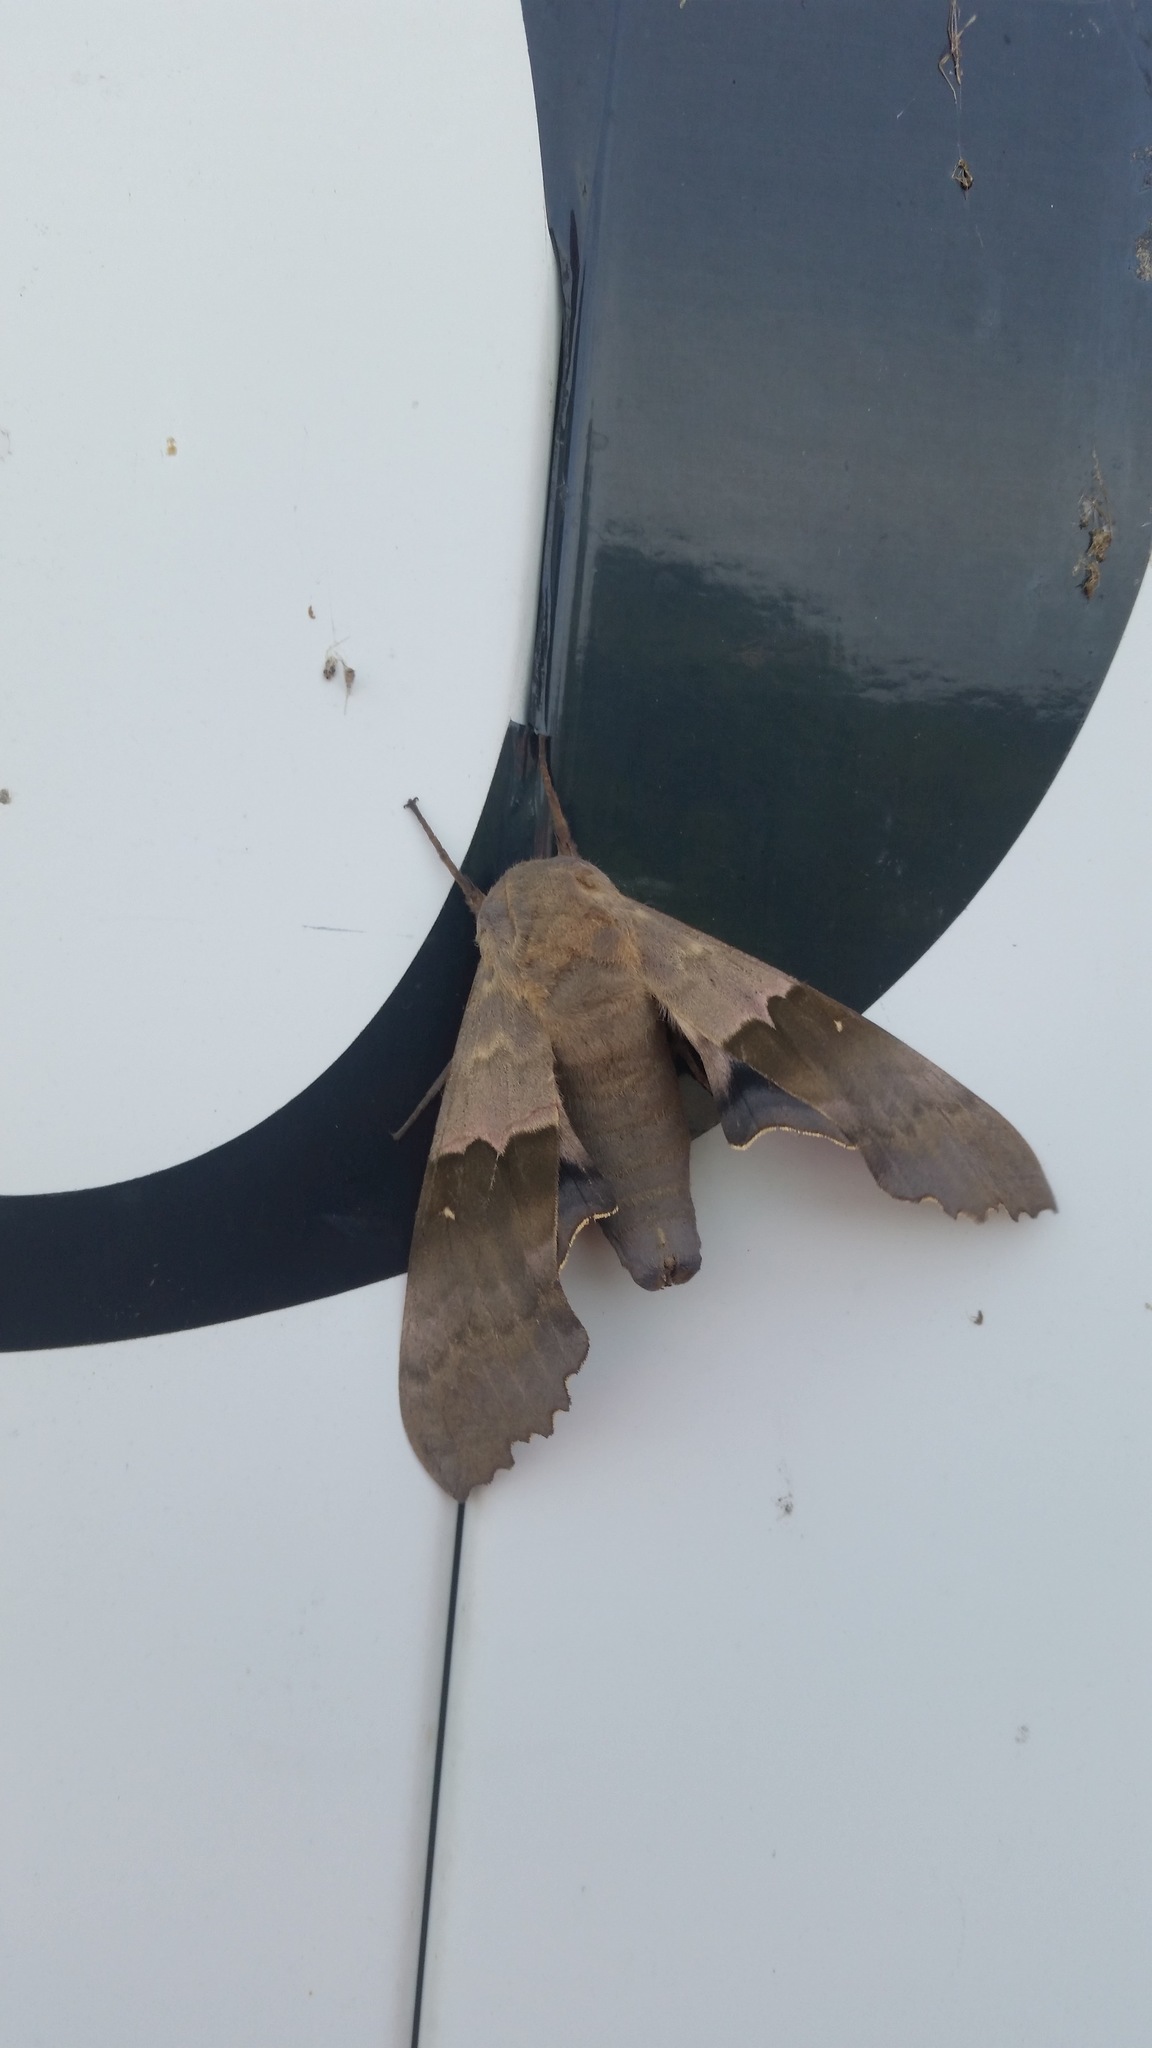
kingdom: Animalia
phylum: Arthropoda
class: Insecta
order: Lepidoptera
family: Sphingidae
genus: Pachysphinx
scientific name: Pachysphinx modesta
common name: Big poplar sphinx
